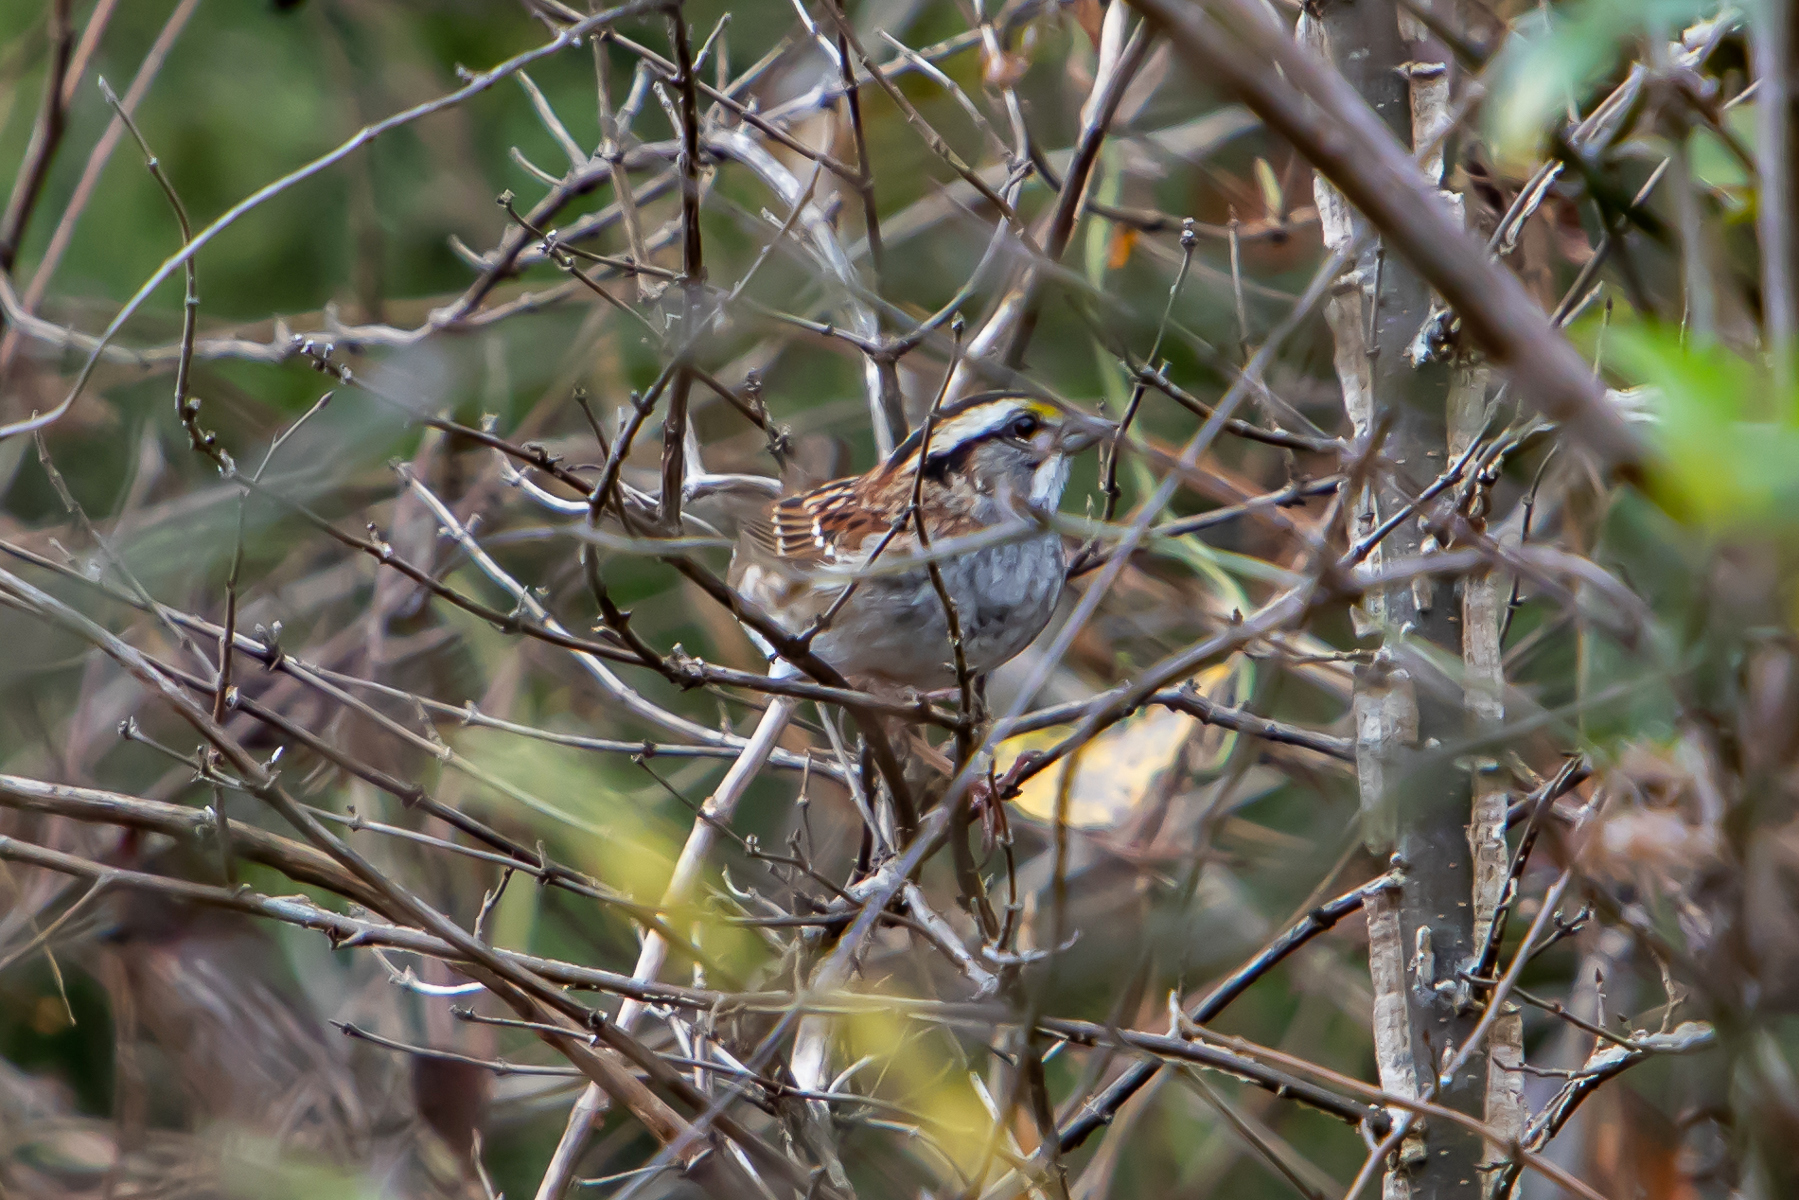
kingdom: Animalia
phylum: Chordata
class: Aves
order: Passeriformes
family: Passerellidae
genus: Zonotrichia
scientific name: Zonotrichia albicollis
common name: White-throated sparrow
